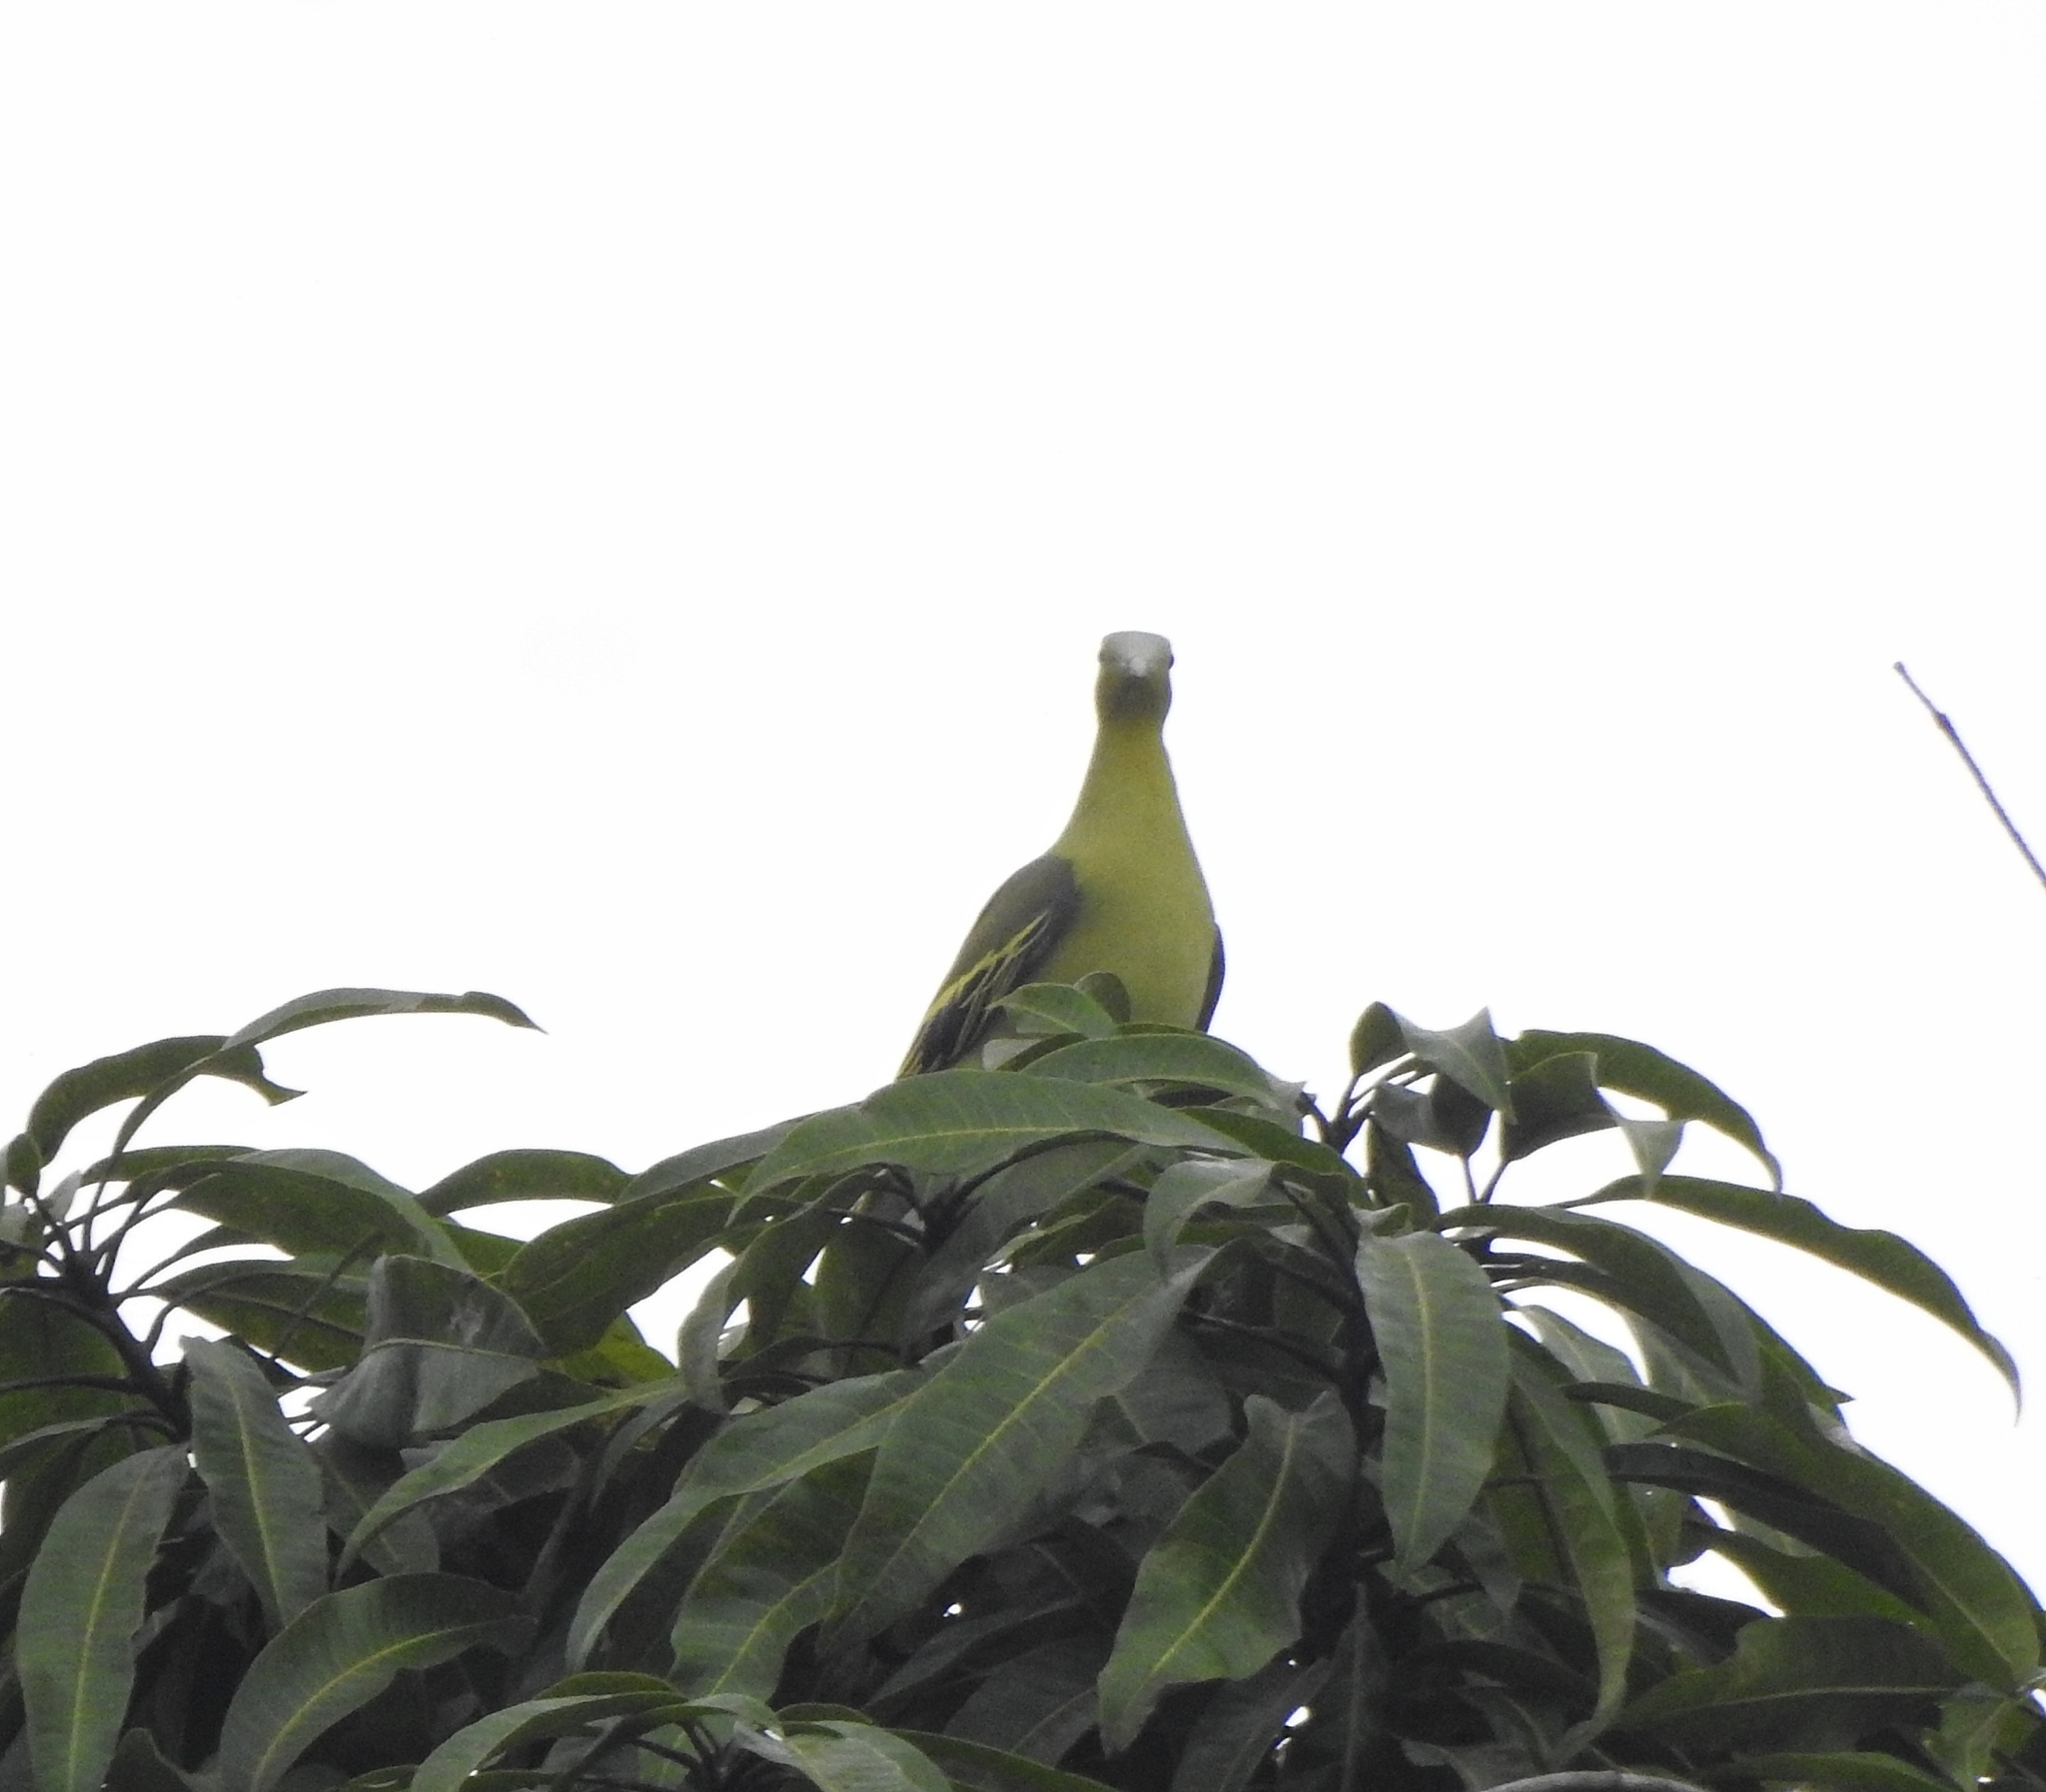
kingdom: Animalia
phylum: Chordata
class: Aves
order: Columbiformes
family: Columbidae
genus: Treron
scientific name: Treron affinis
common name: Grey-fronted green pigeon
